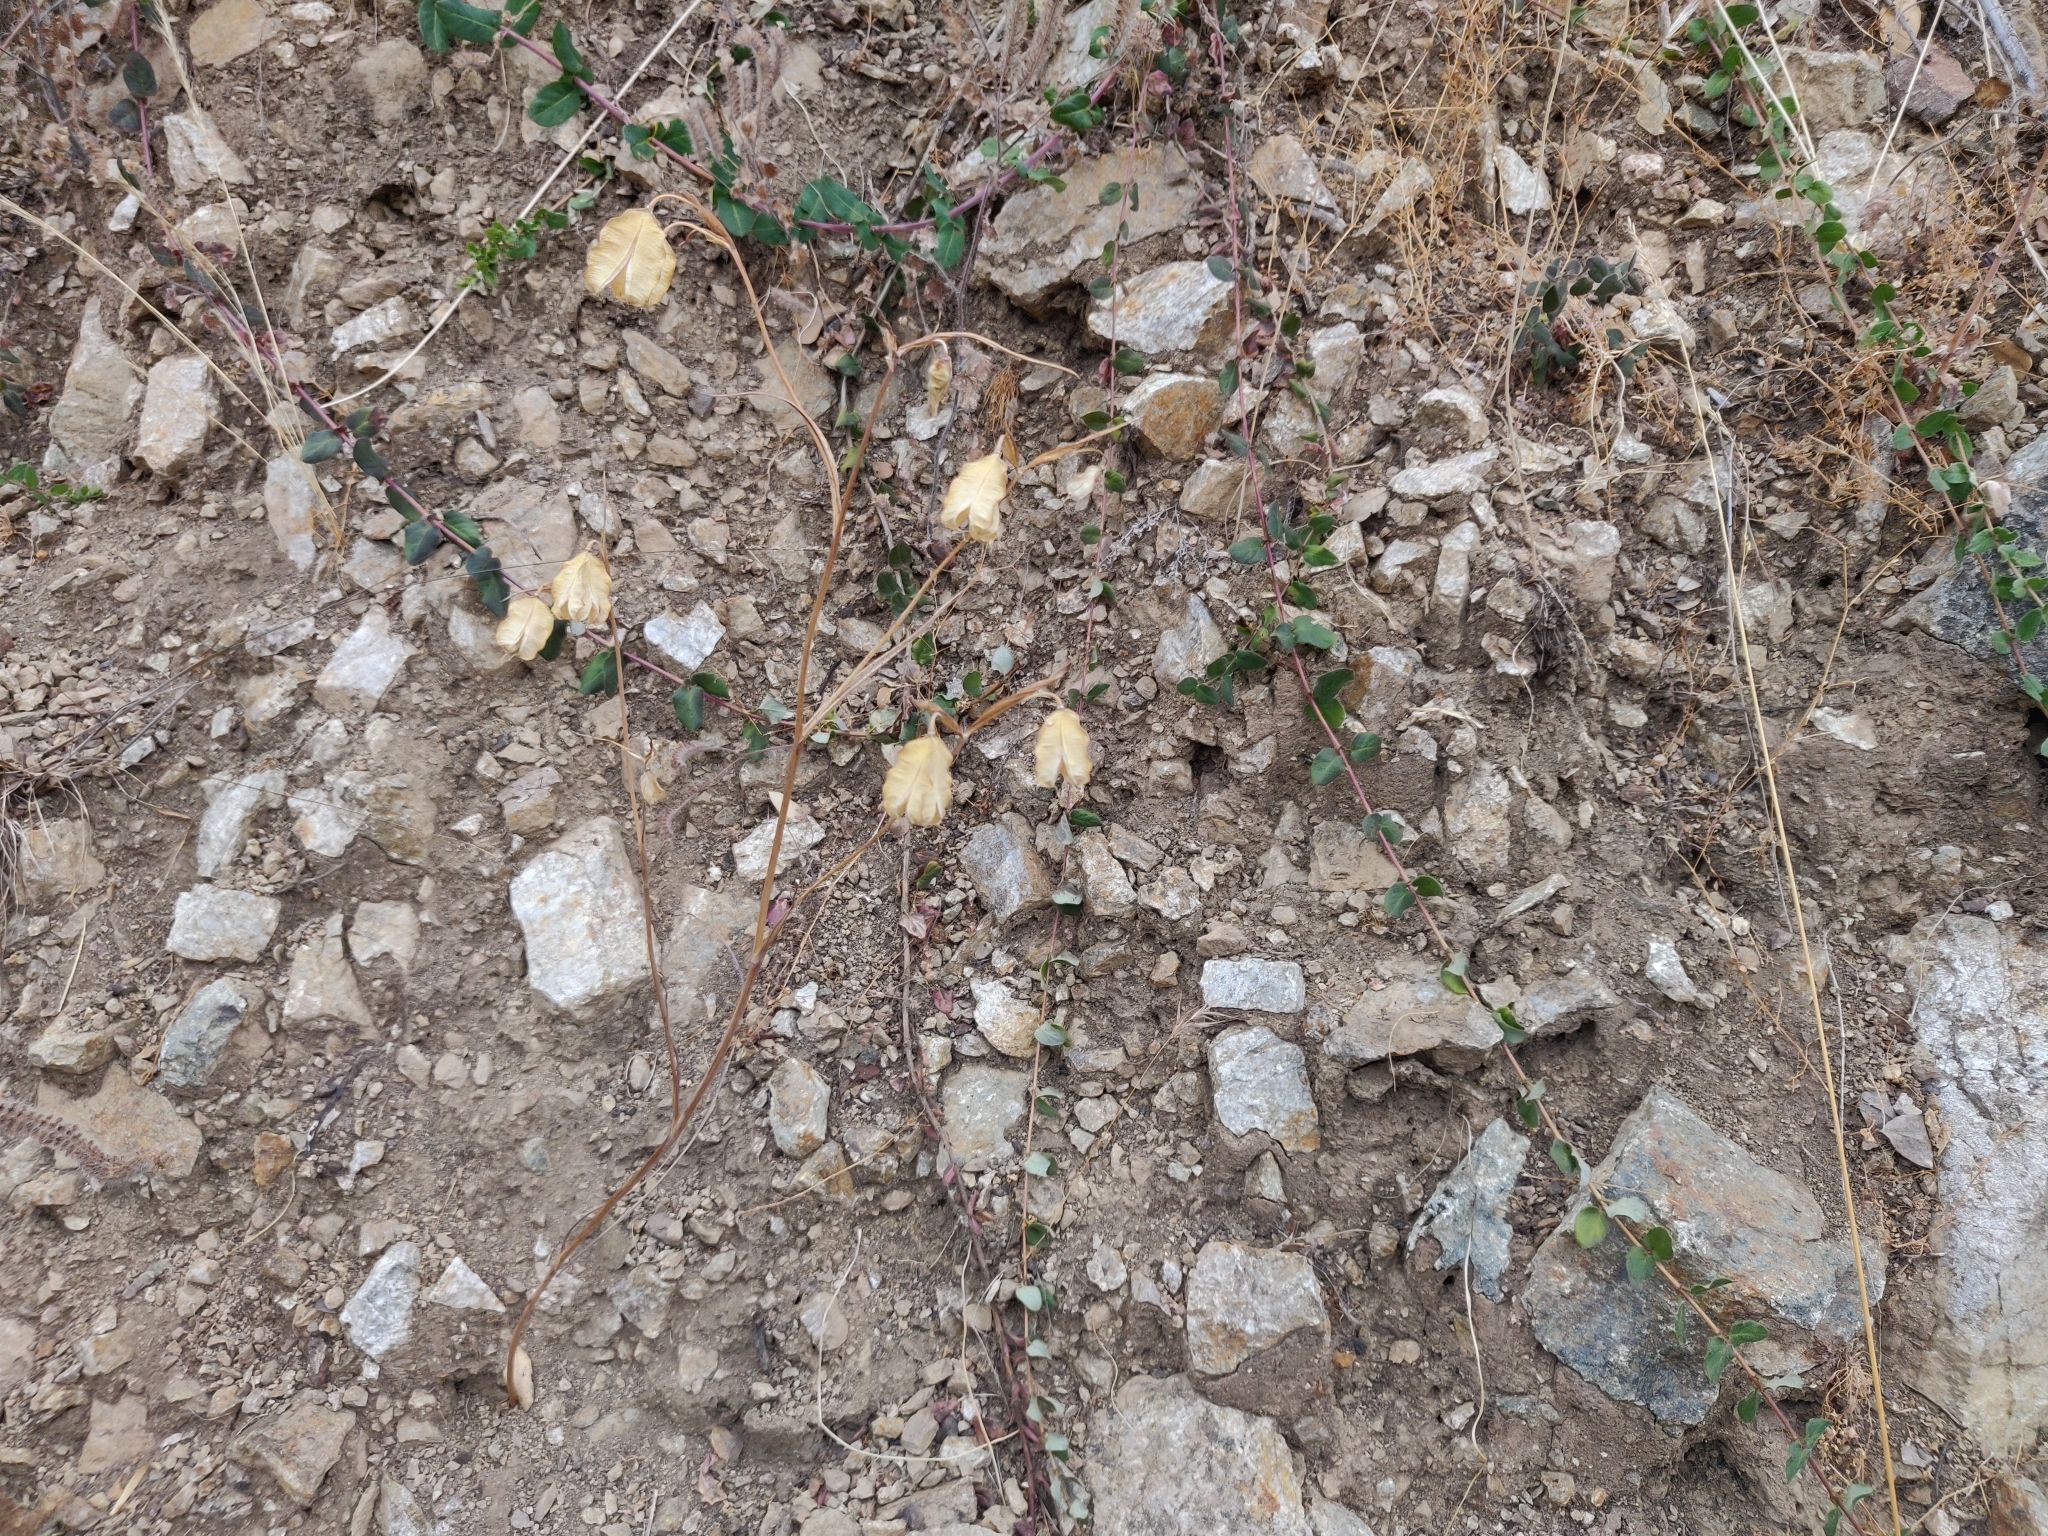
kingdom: Plantae
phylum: Tracheophyta
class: Liliopsida
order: Liliales
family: Liliaceae
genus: Calochortus
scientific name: Calochortus albus
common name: Fairy-lantern
